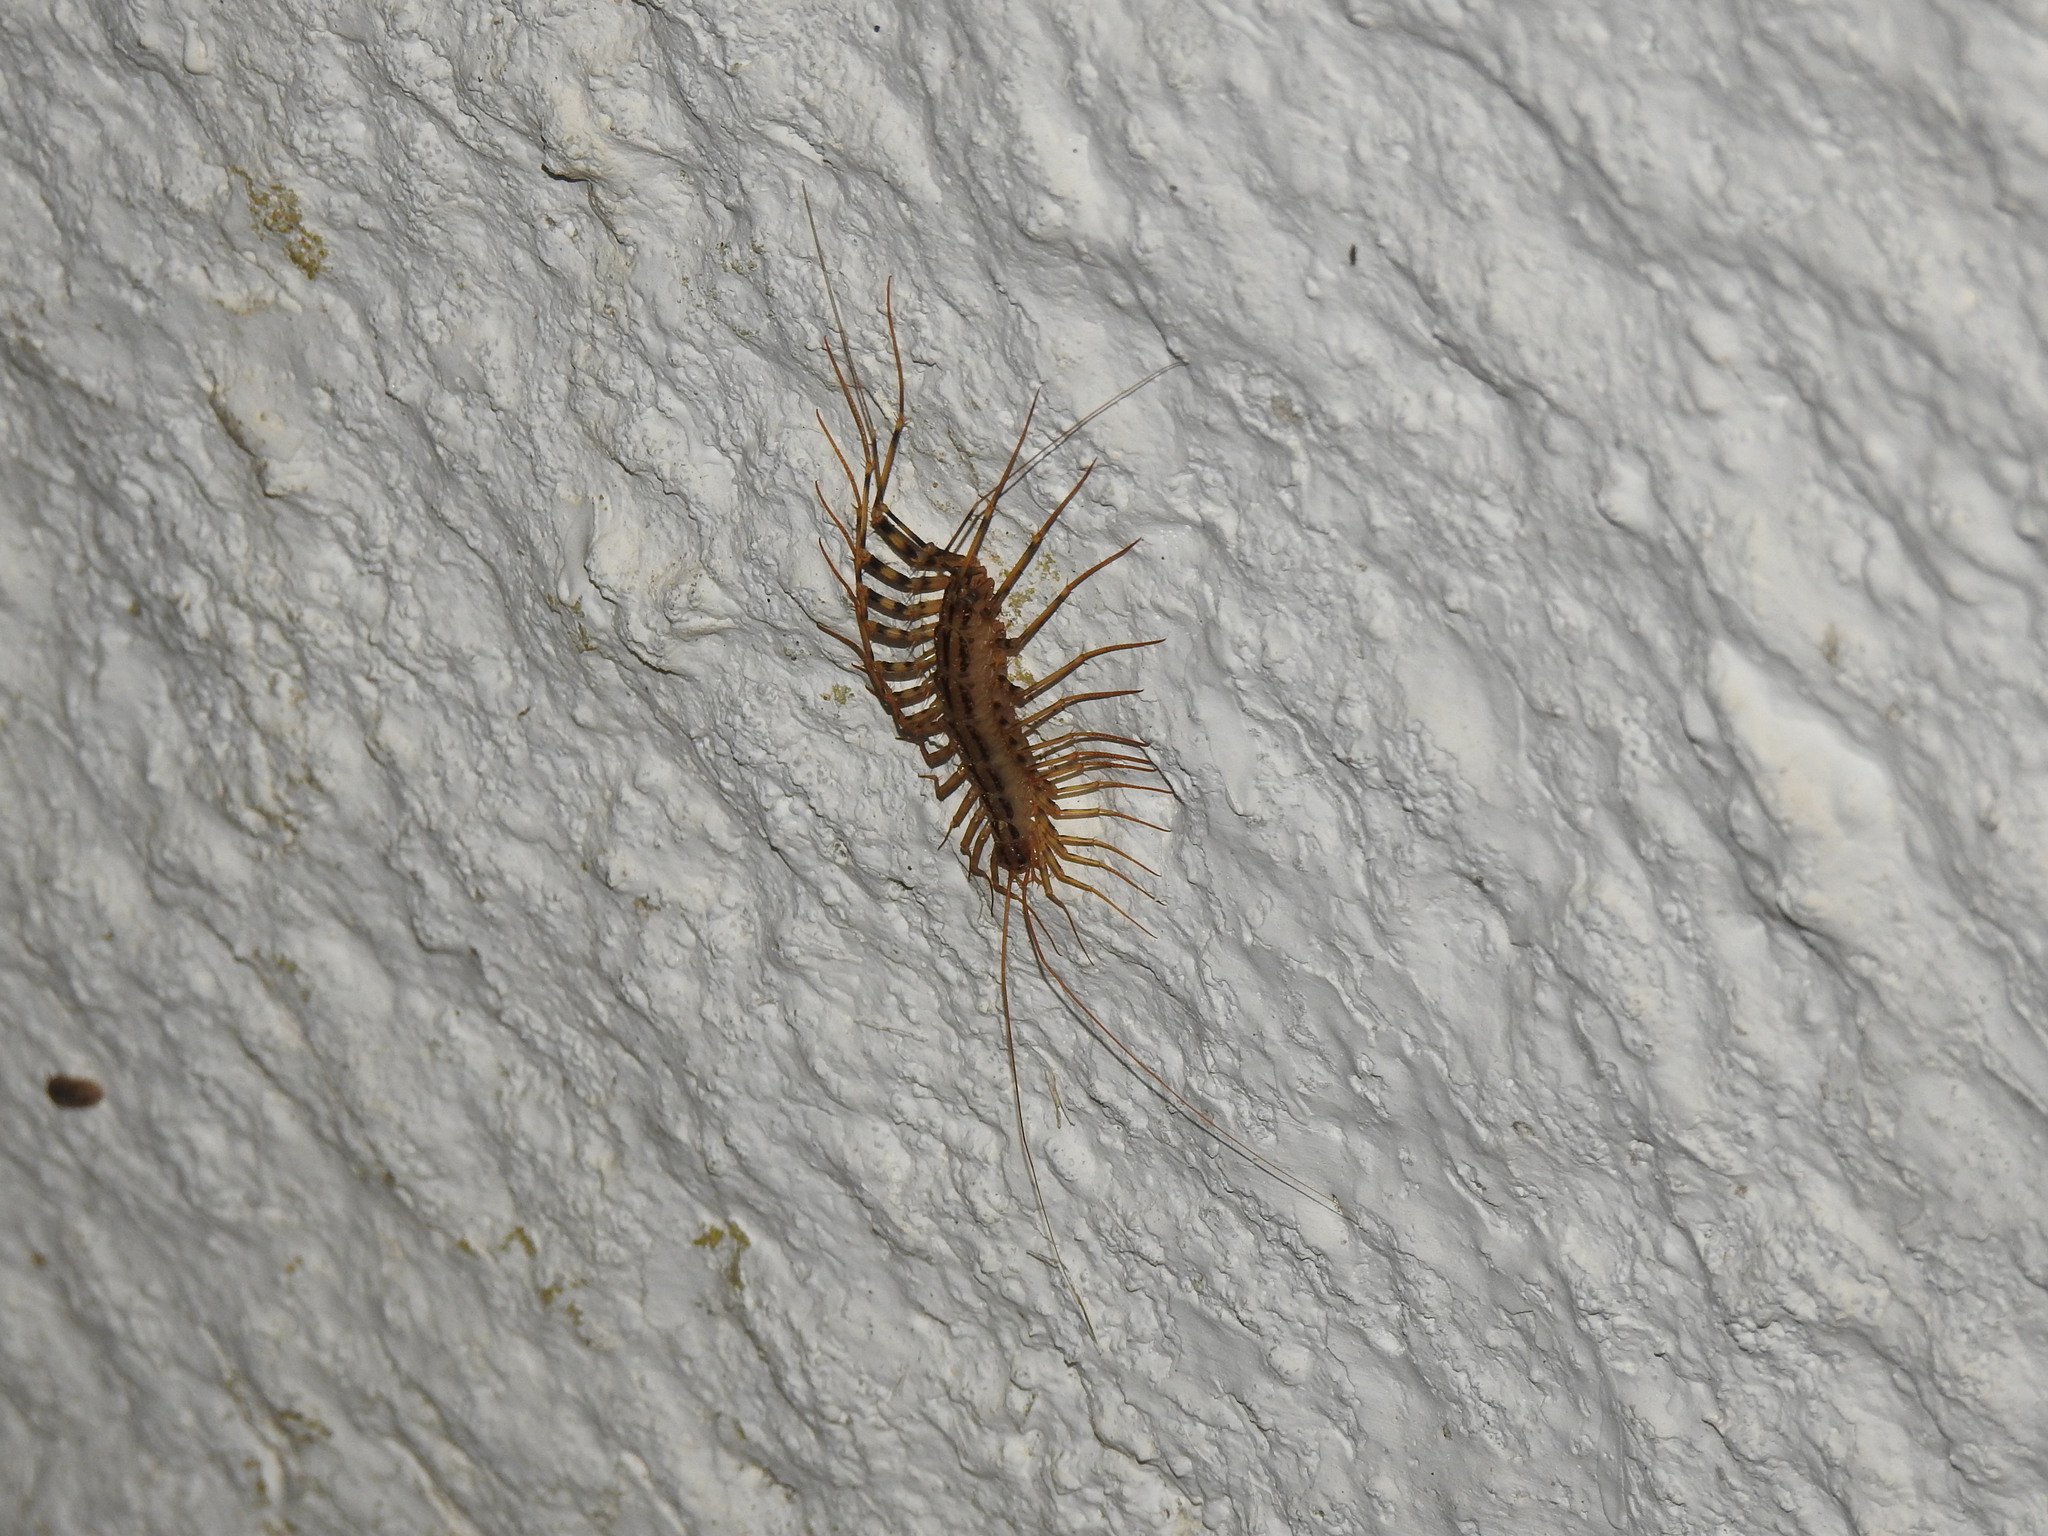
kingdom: Animalia
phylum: Arthropoda
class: Chilopoda
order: Scutigeromorpha
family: Scutigeridae
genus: Scutigera
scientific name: Scutigera coleoptrata
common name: House centipede
